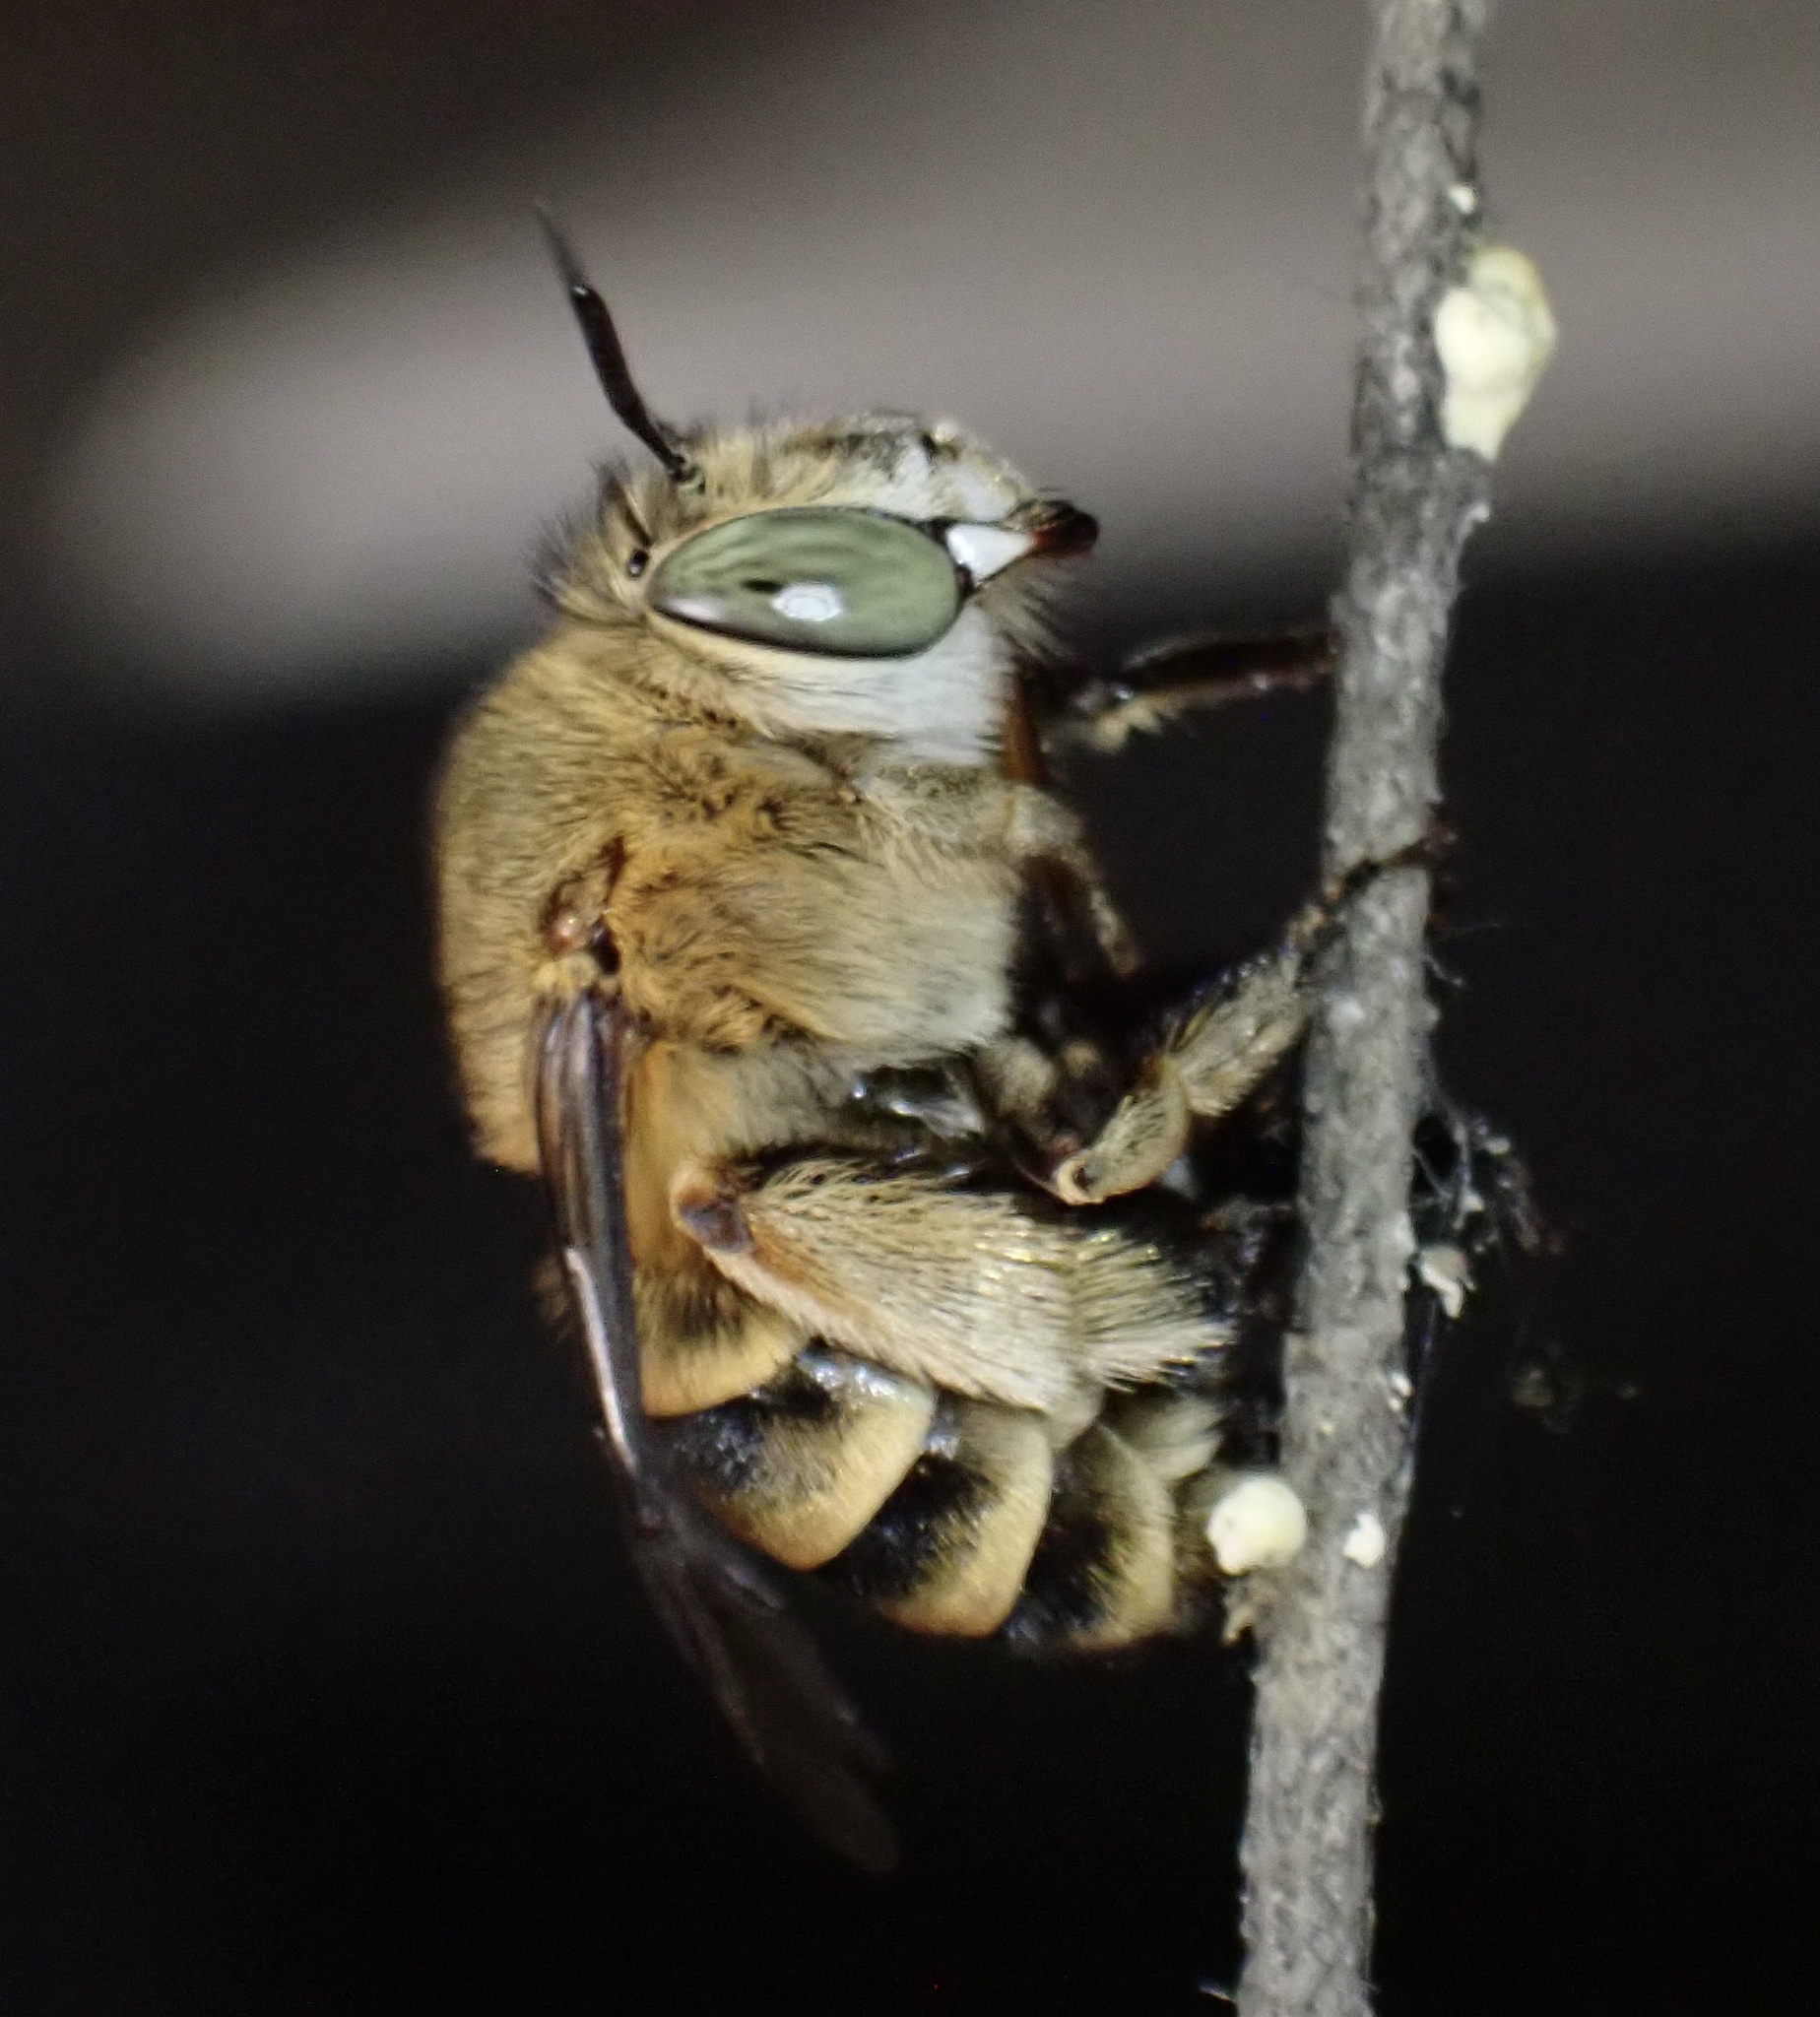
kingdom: Animalia
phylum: Arthropoda
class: Insecta
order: Hymenoptera
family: Apidae
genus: Amegilla
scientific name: Amegilla garrula
